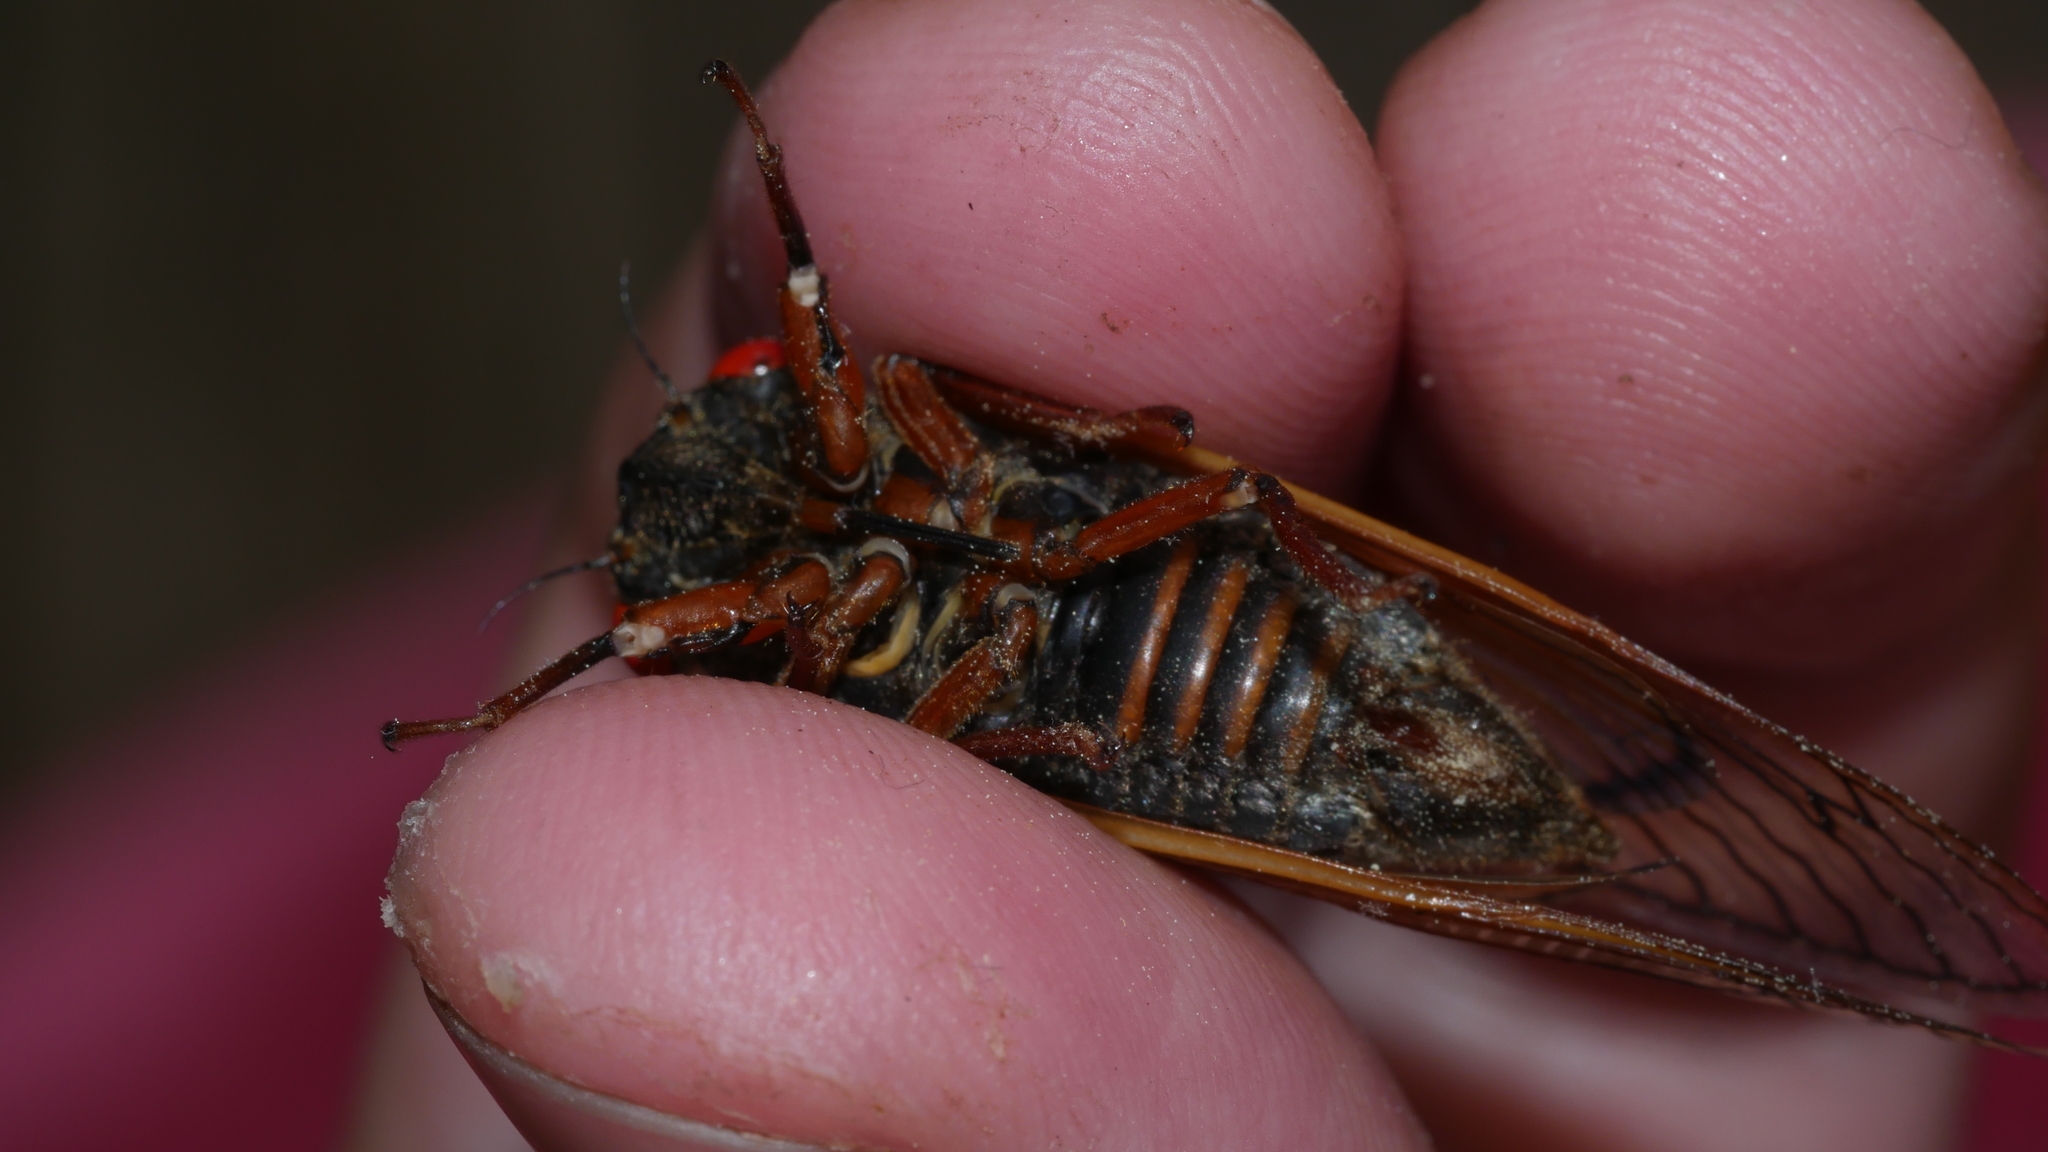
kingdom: Animalia
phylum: Arthropoda
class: Insecta
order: Hemiptera
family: Cicadidae
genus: Magicicada
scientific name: Magicicada septendecula
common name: Decula periodical cicada
